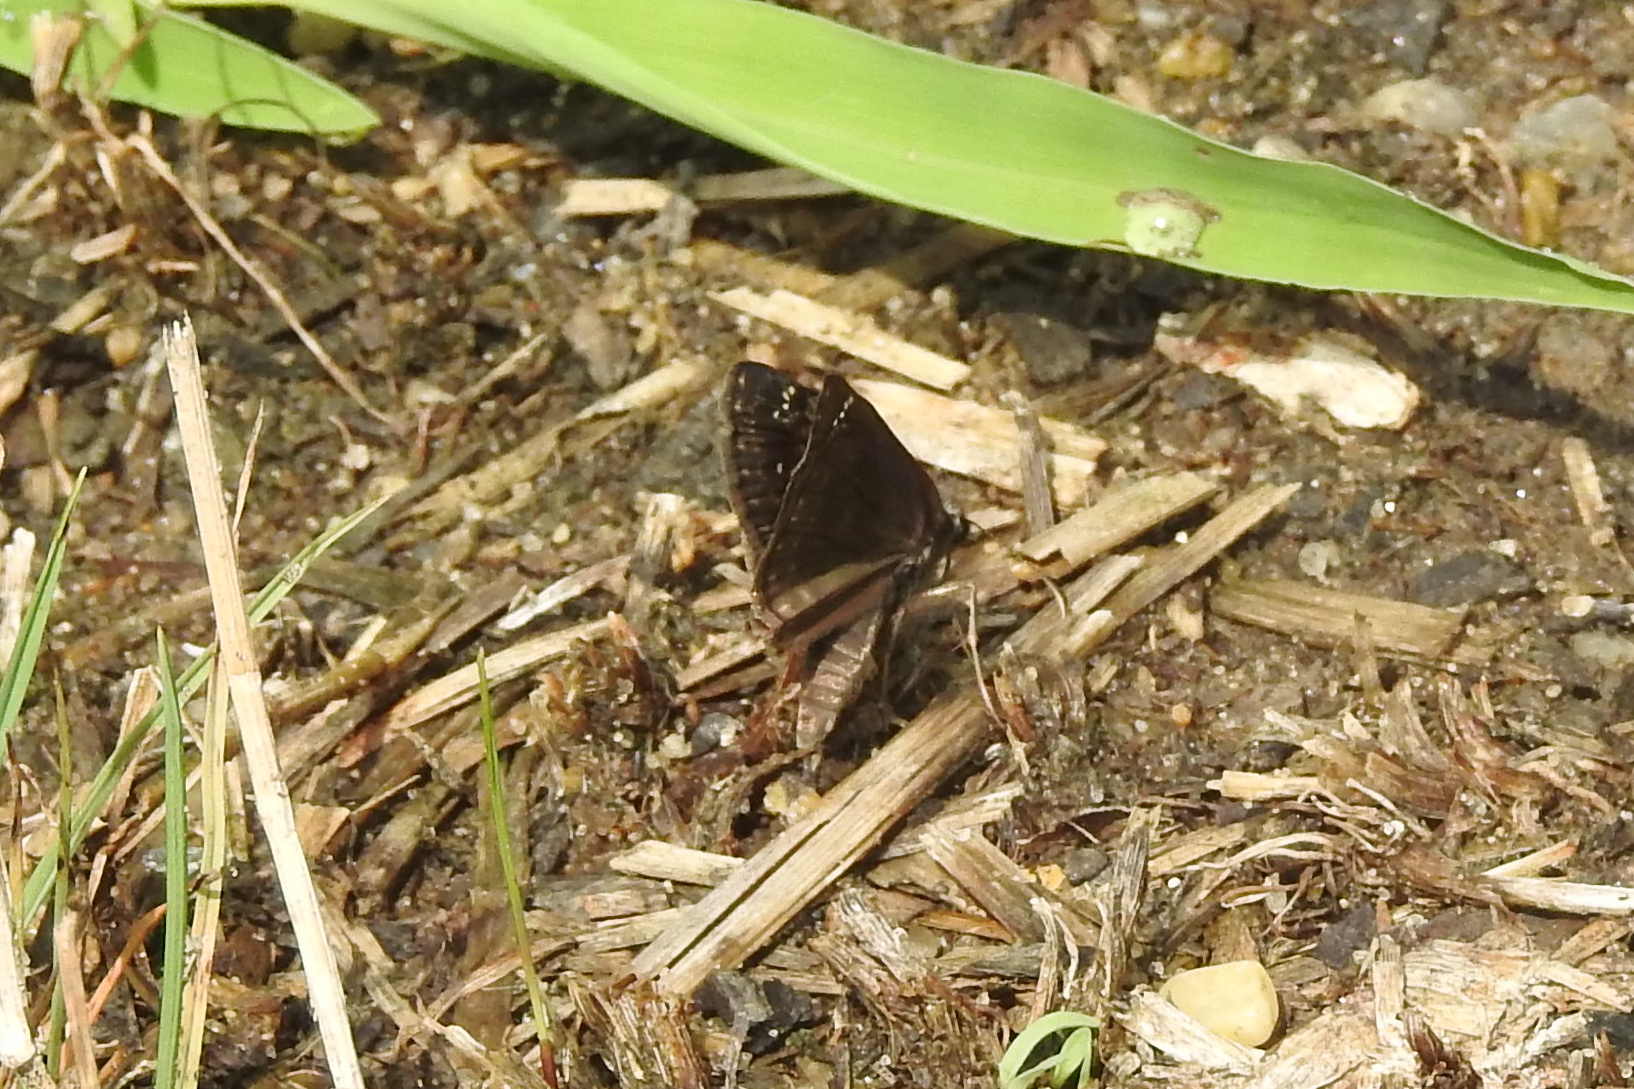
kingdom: Animalia
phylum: Arthropoda
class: Insecta
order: Lepidoptera
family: Hesperiidae
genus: Erynnis
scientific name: Erynnis baptisiae
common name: Wild indigo duskywing
